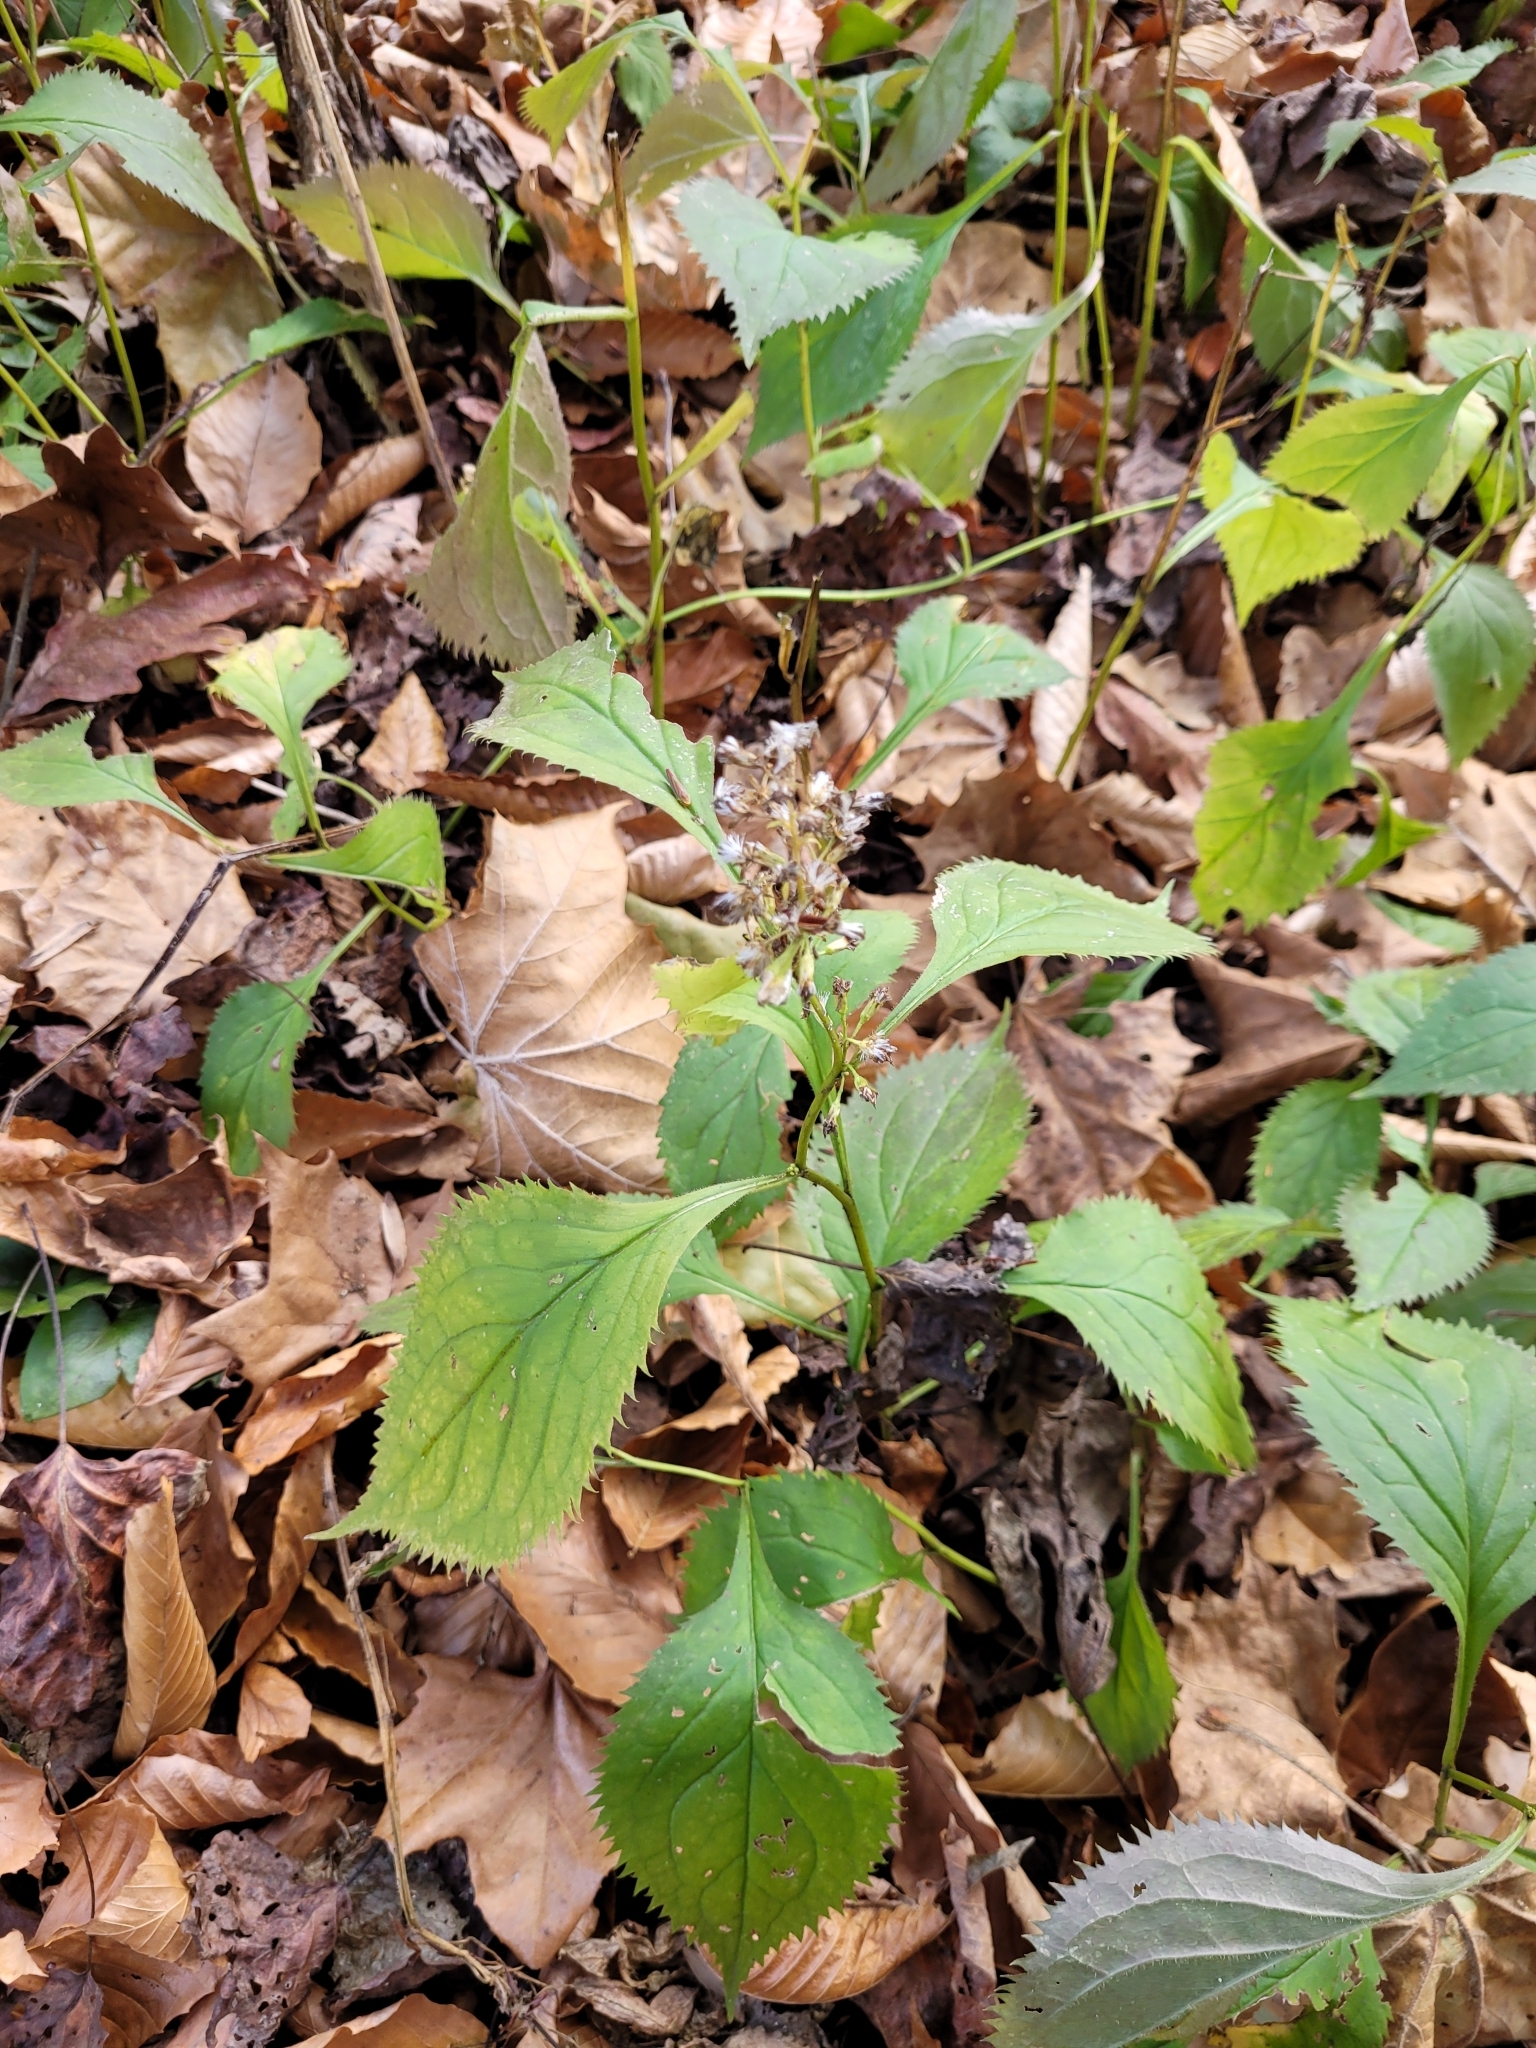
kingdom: Plantae
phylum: Tracheophyta
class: Magnoliopsida
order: Asterales
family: Asteraceae
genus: Solidago
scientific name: Solidago flexicaulis
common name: Zig-zag goldenrod
